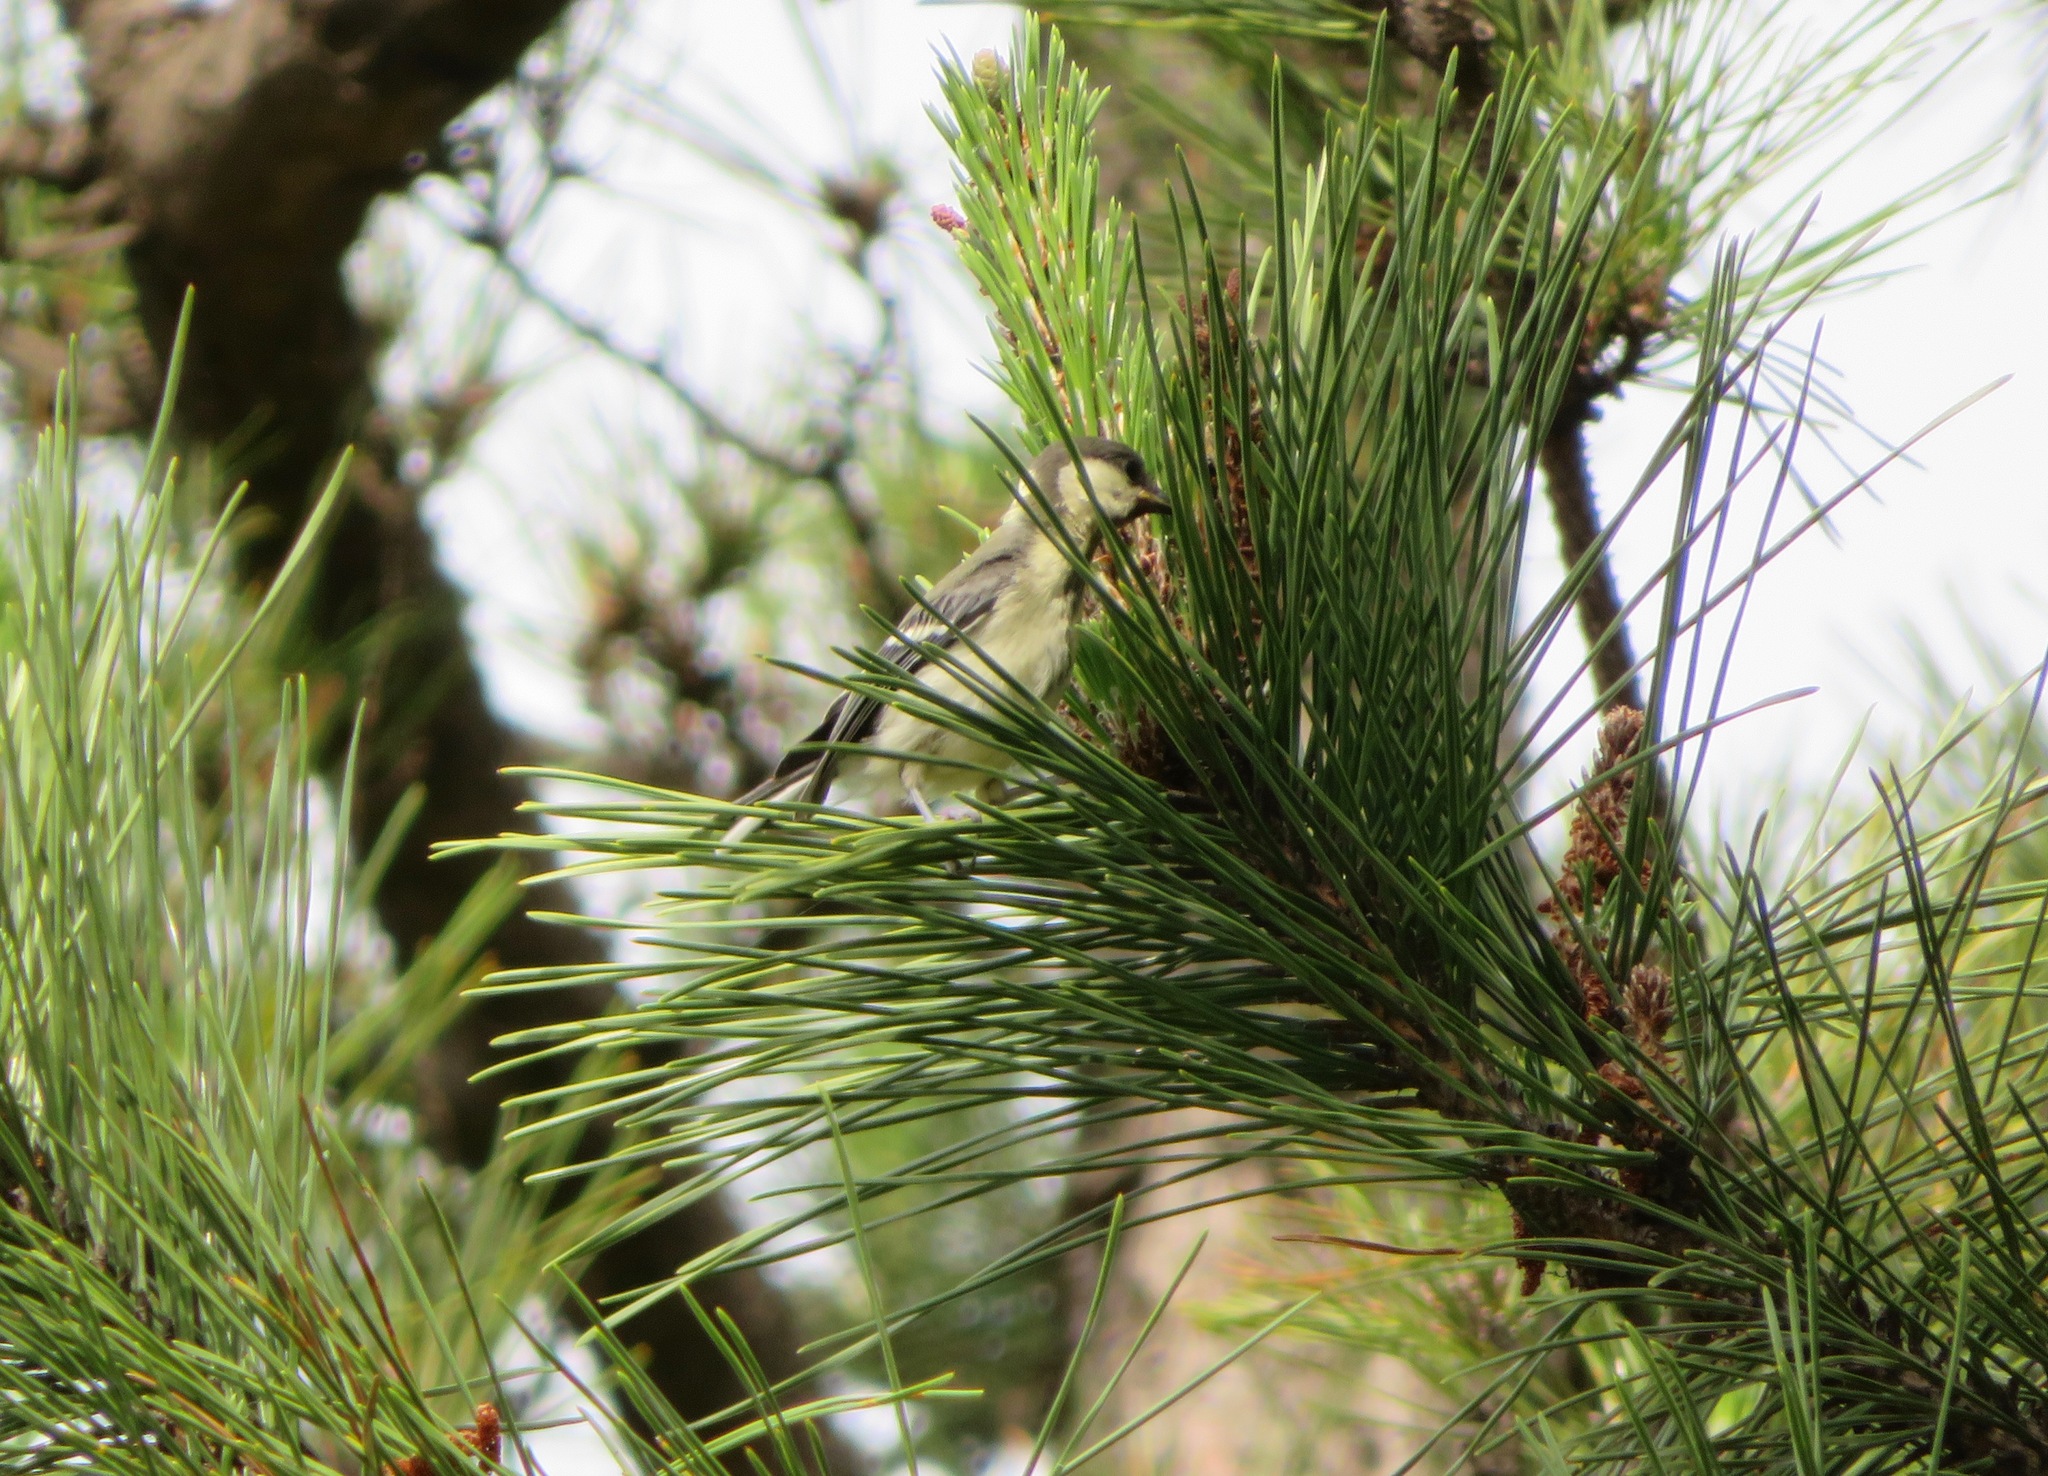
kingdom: Animalia
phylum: Chordata
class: Aves
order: Passeriformes
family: Paridae
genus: Parus
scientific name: Parus minor
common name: Japanese tit
